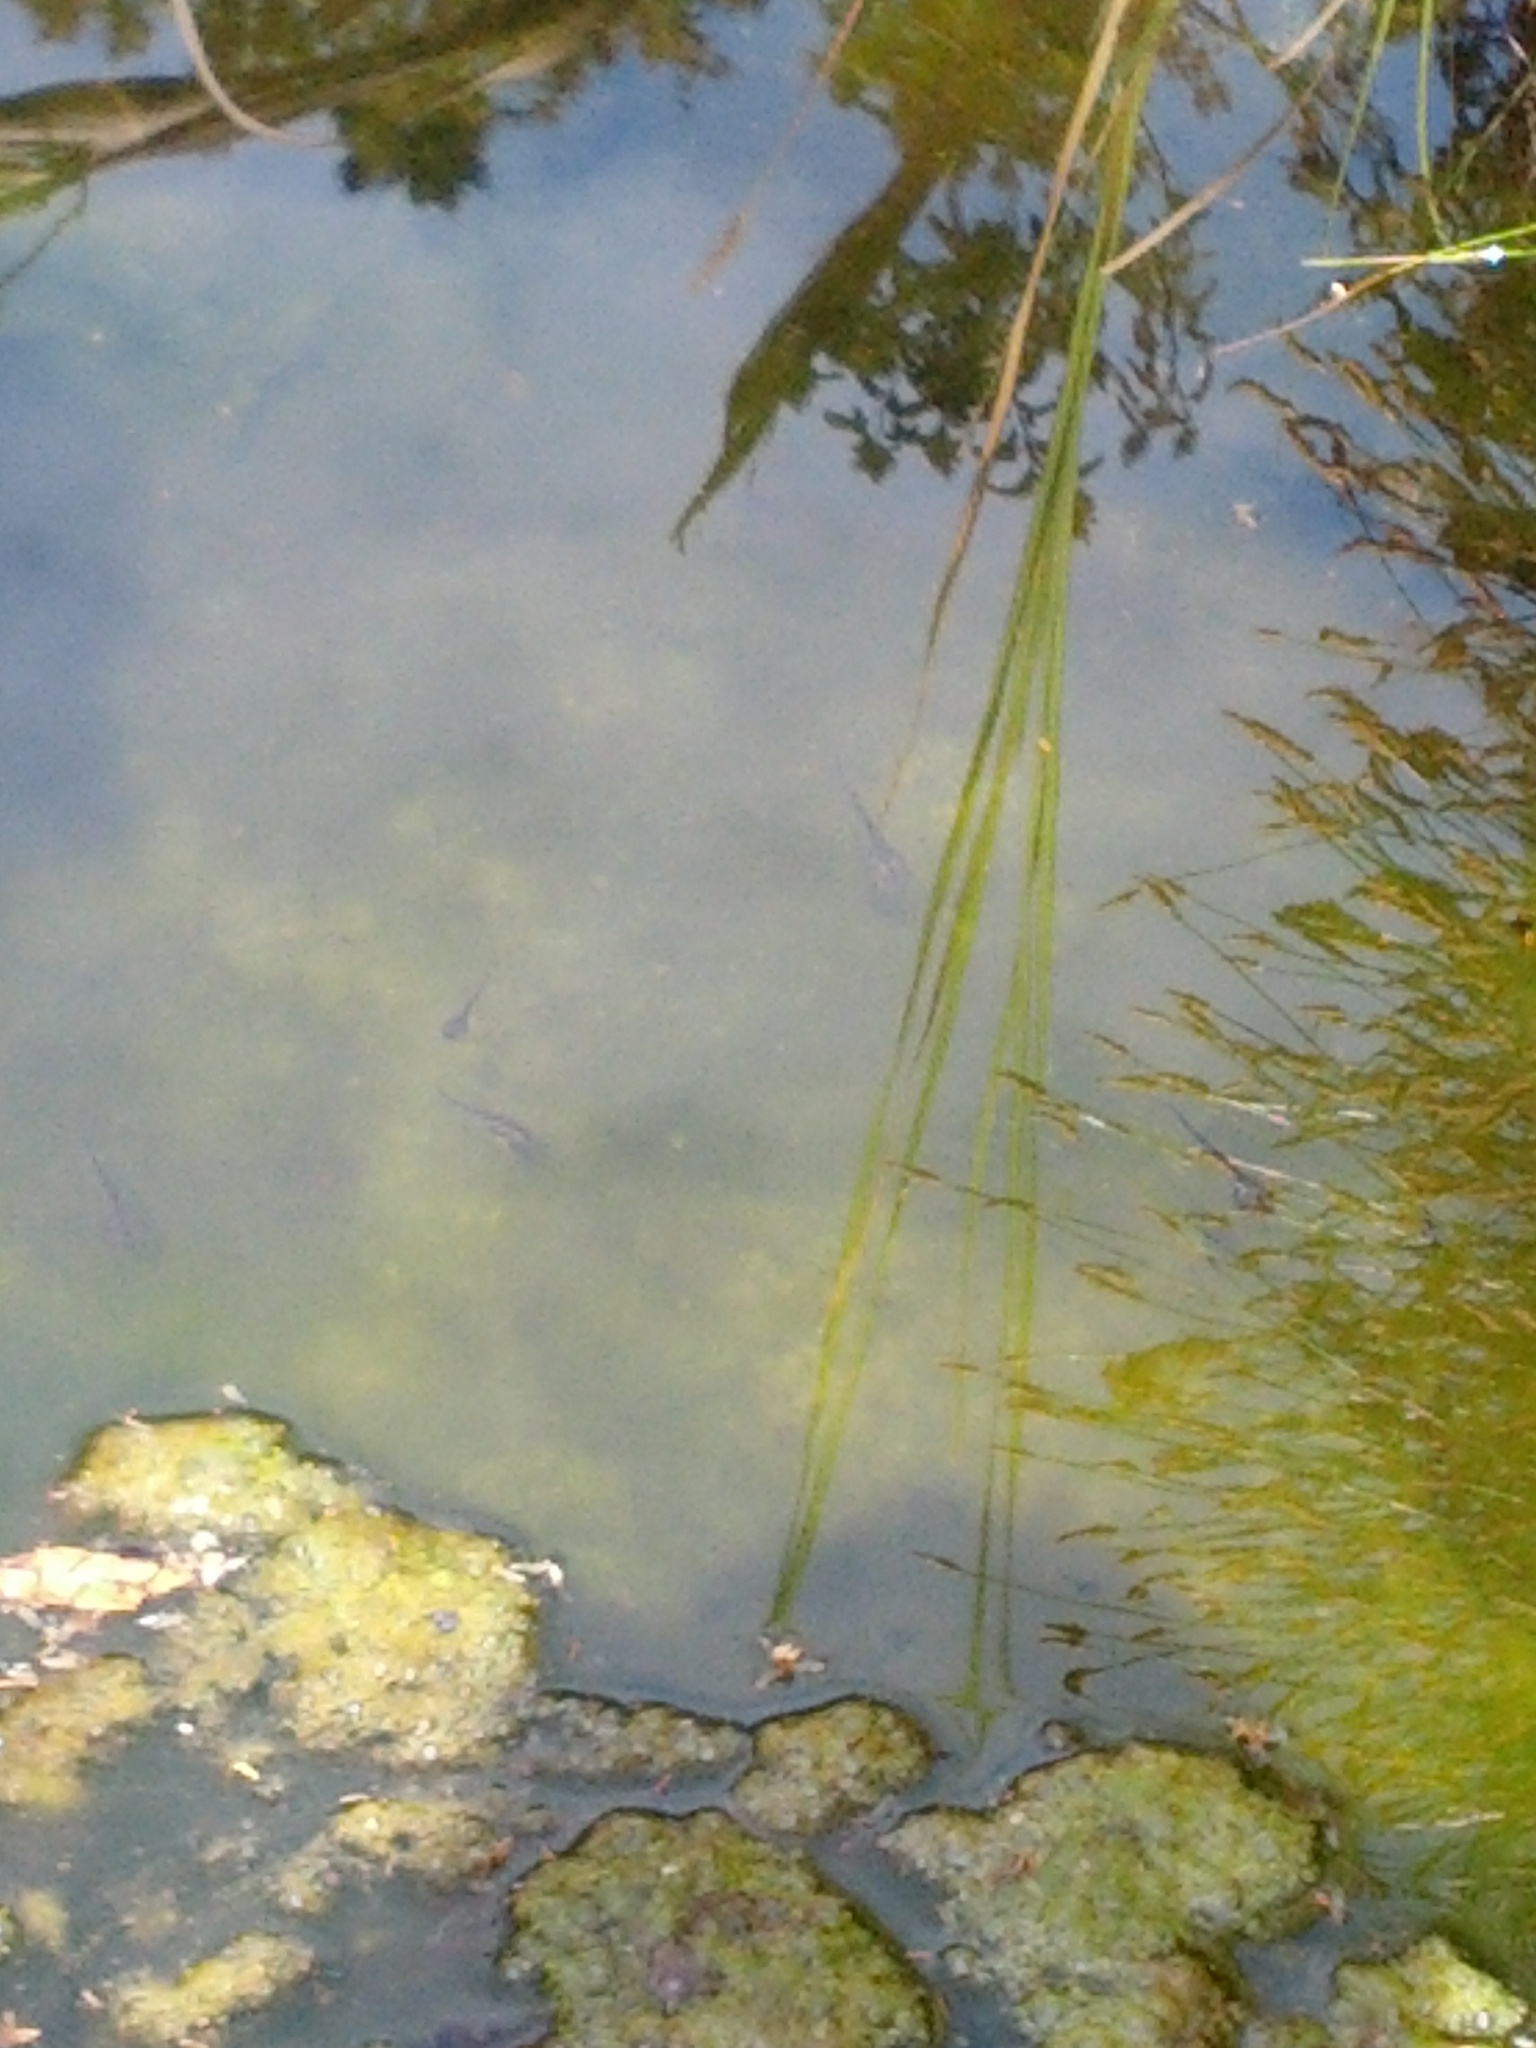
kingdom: Animalia
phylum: Chordata
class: Amphibia
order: Anura
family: Pipidae
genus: Xenopus
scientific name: Xenopus laevis
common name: African clawed frog
